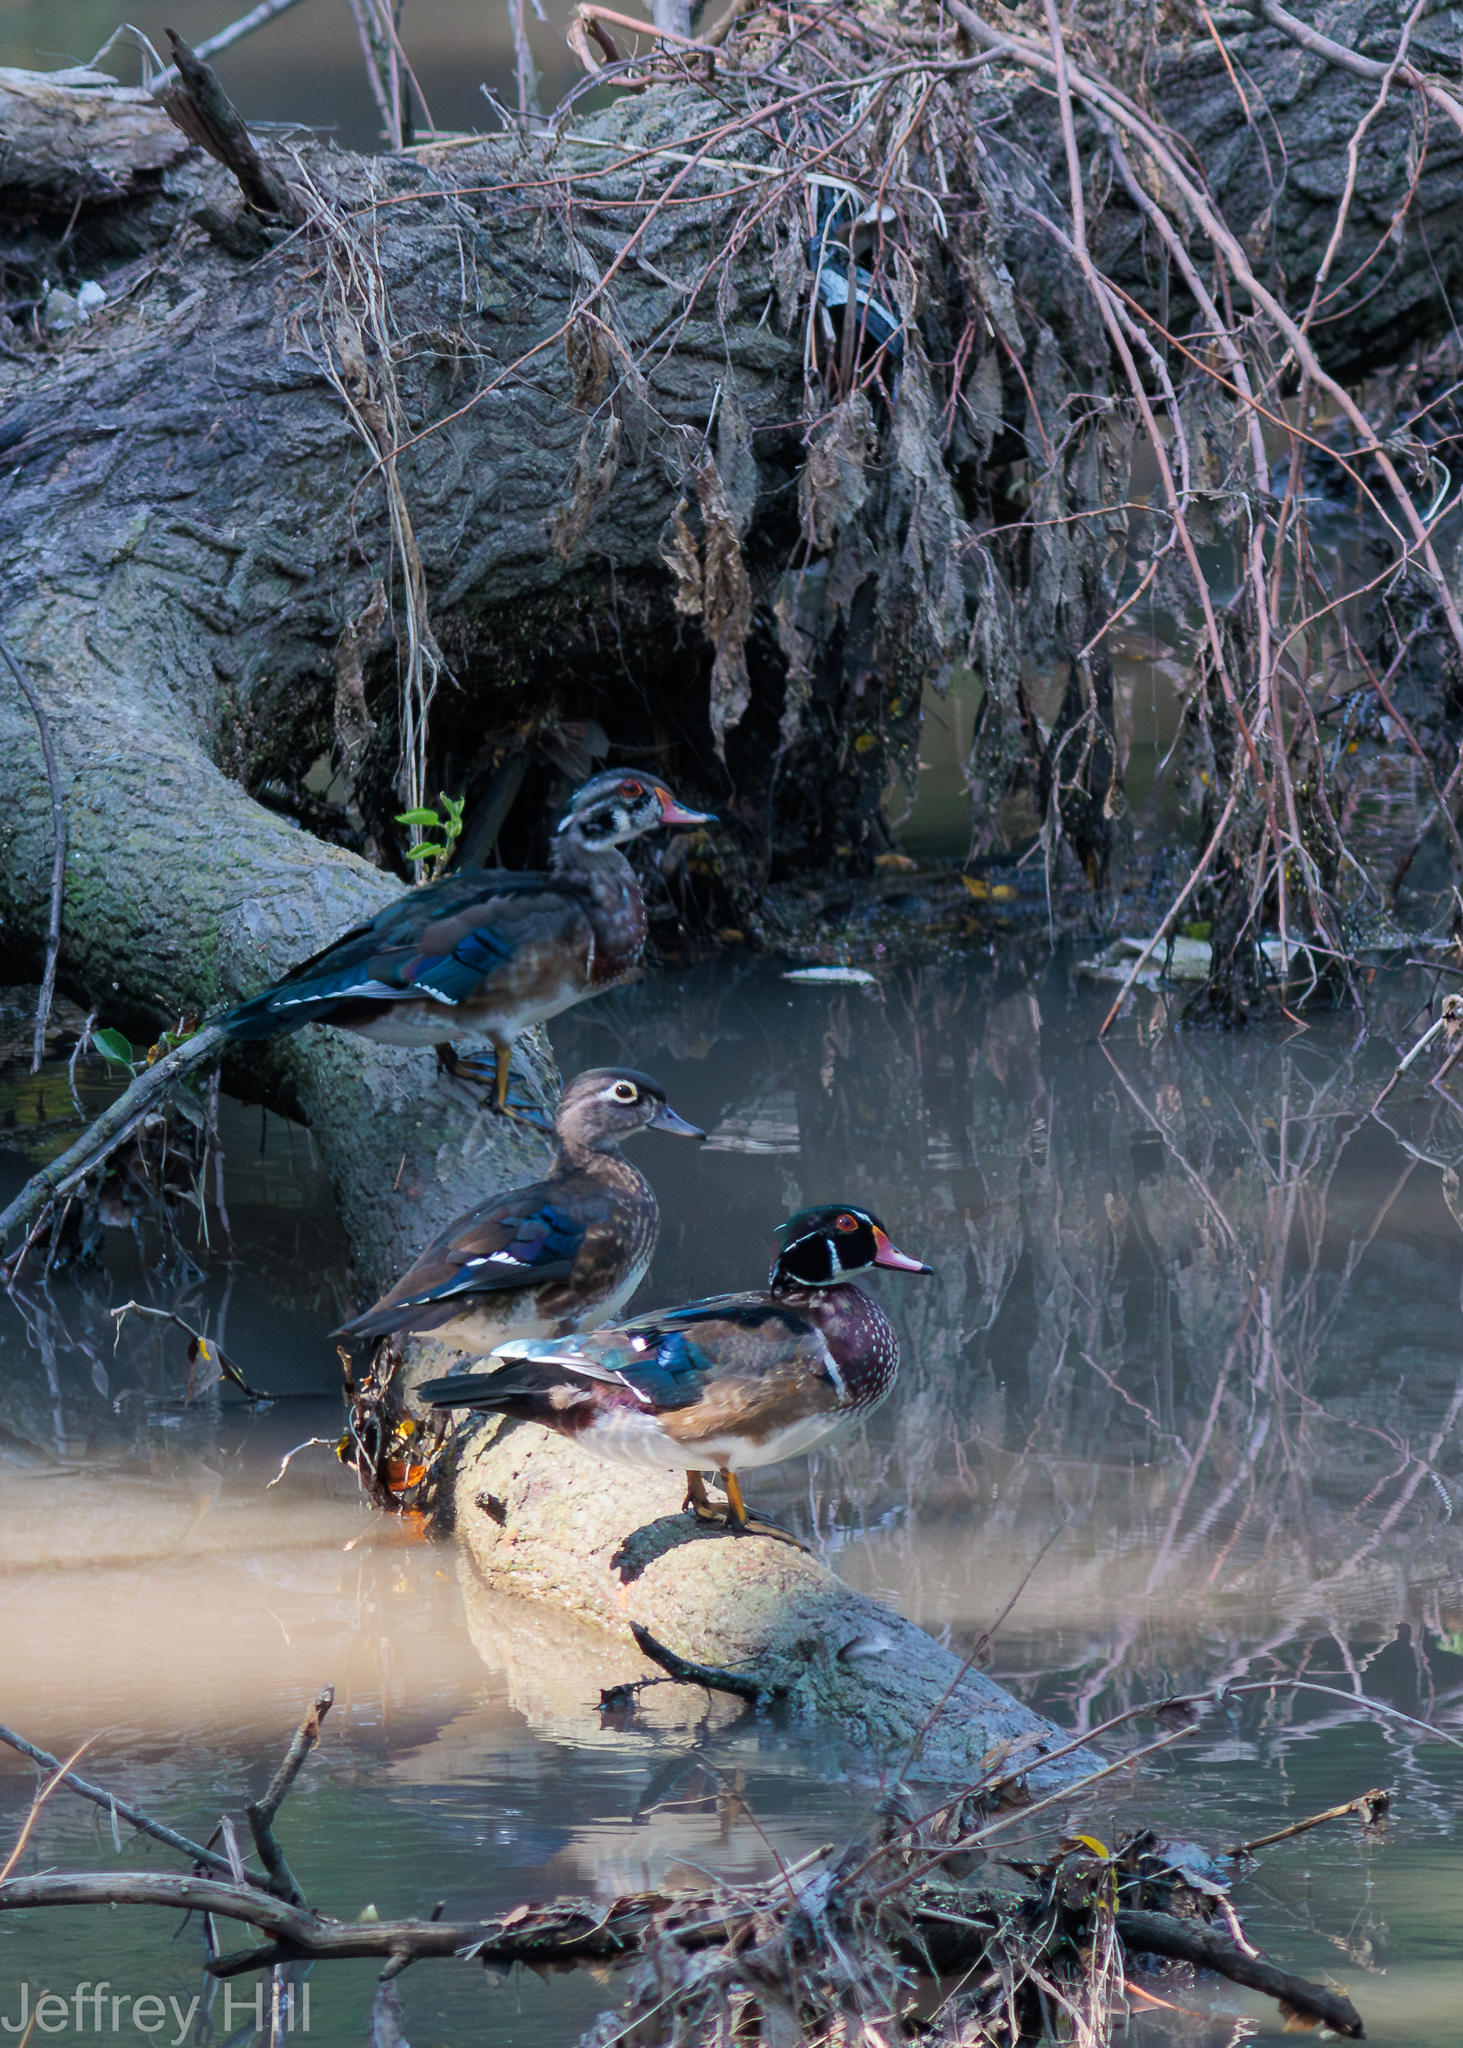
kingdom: Animalia
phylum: Chordata
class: Aves
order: Anseriformes
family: Anatidae
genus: Aix
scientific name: Aix sponsa
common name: Wood duck
